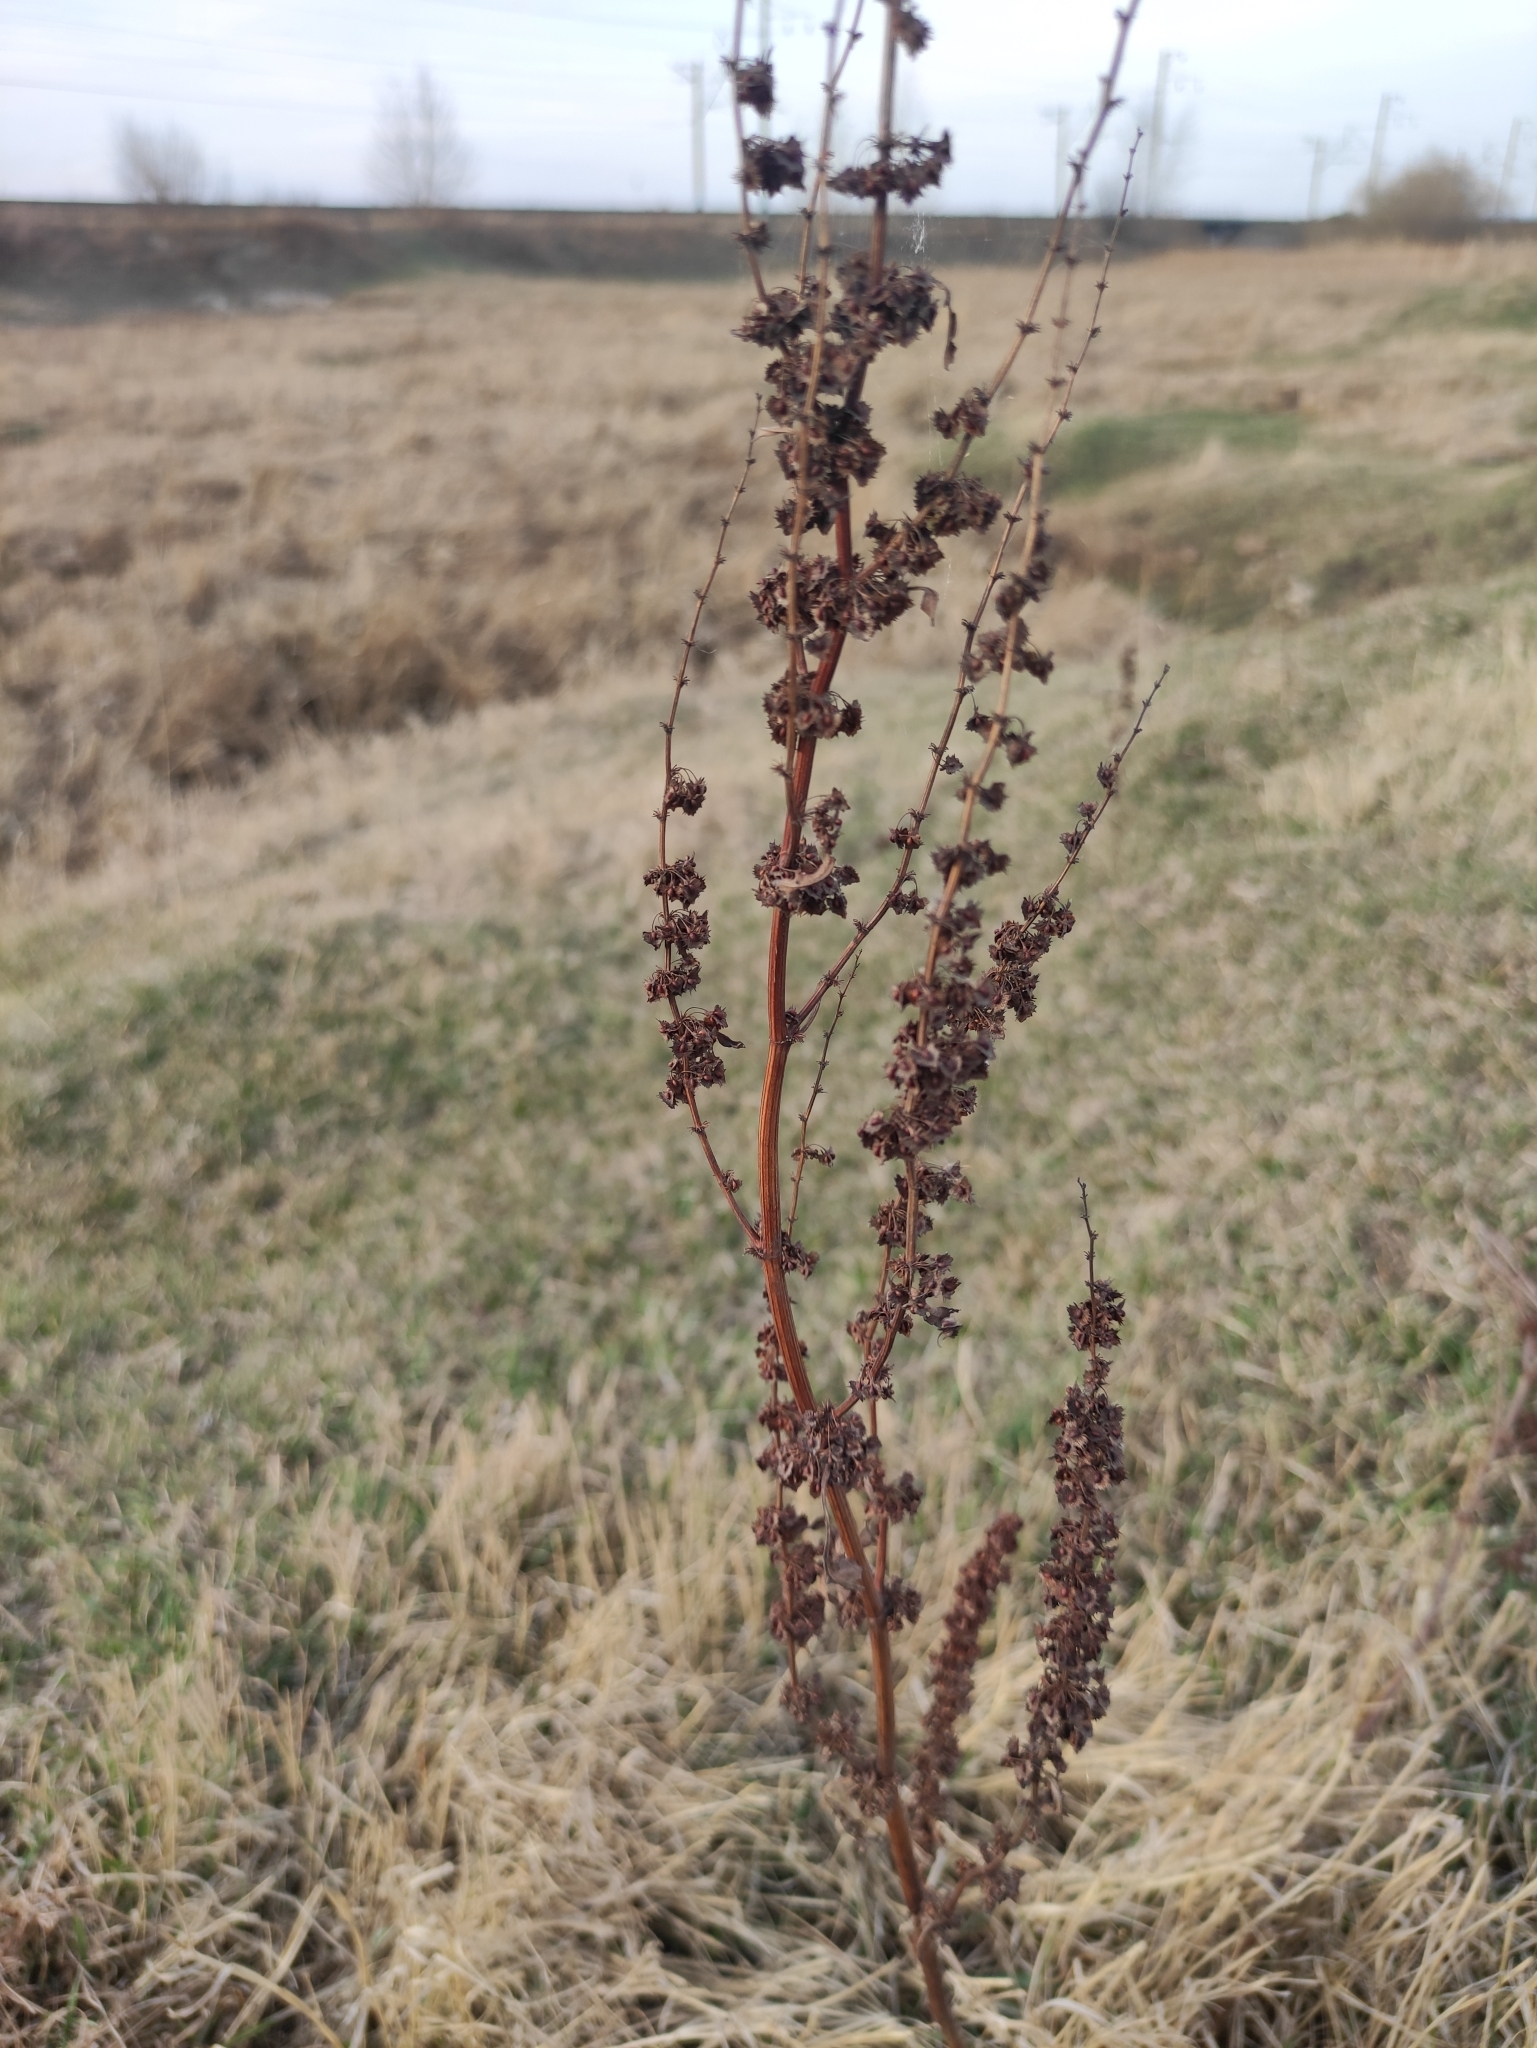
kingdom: Plantae
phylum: Tracheophyta
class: Magnoliopsida
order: Caryophyllales
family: Polygonaceae
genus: Rumex
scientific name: Rumex stenophyllus
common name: Narrowleaf dock
